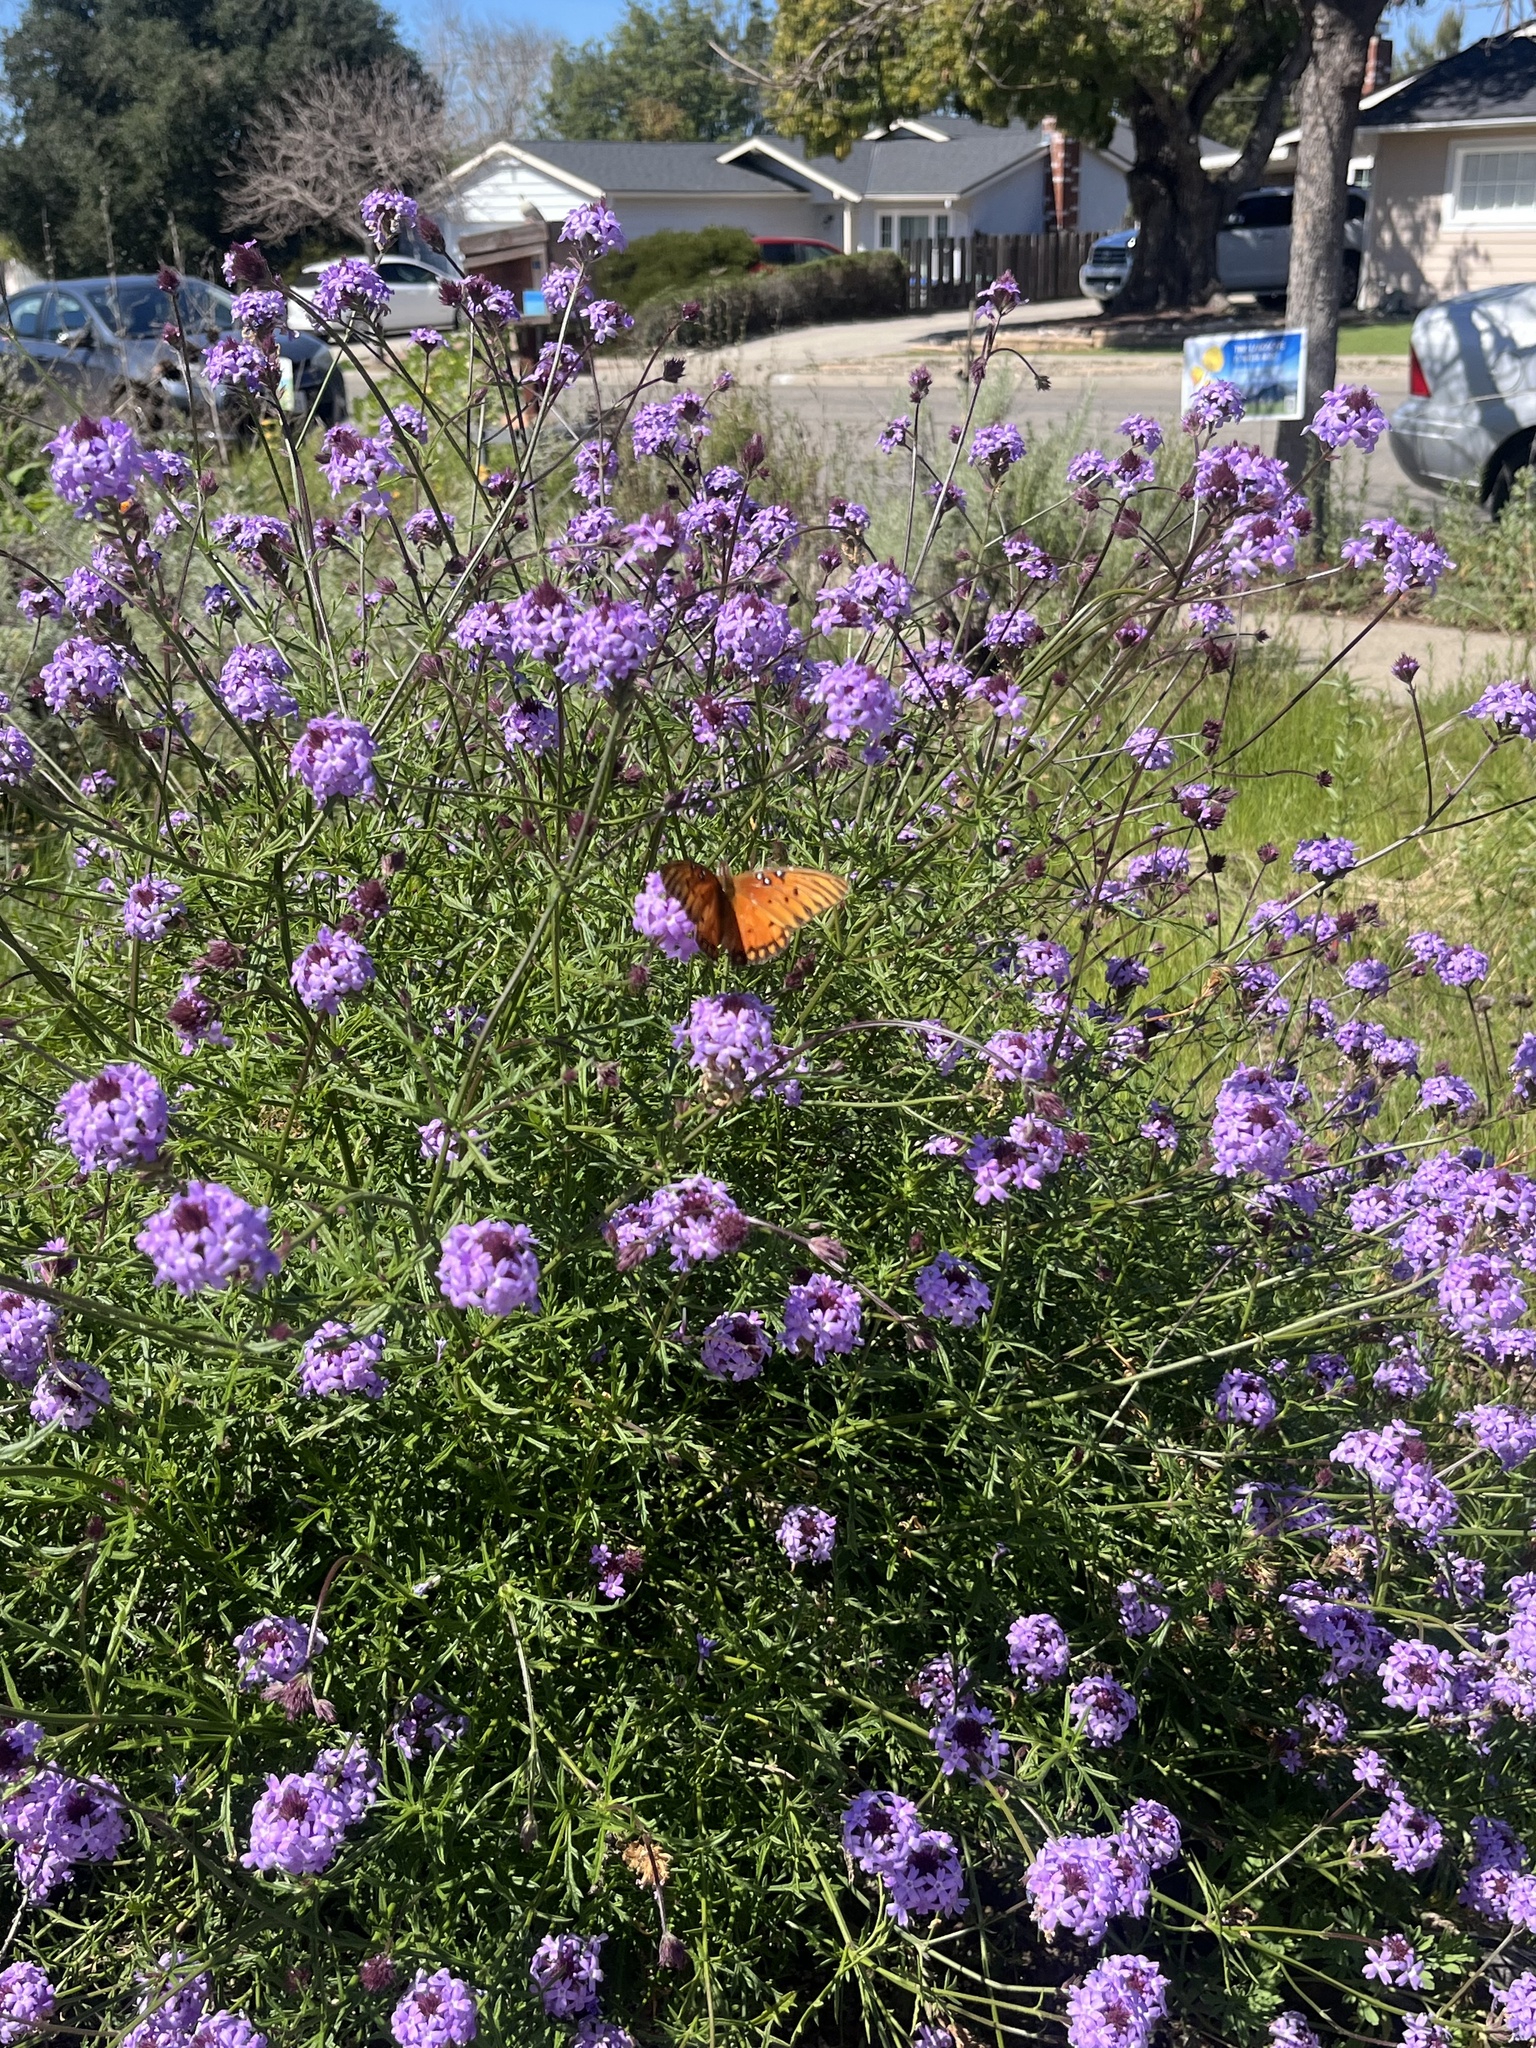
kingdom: Animalia
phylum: Arthropoda
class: Insecta
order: Lepidoptera
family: Nymphalidae
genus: Dione
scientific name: Dione vanillae
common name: Gulf fritillary
